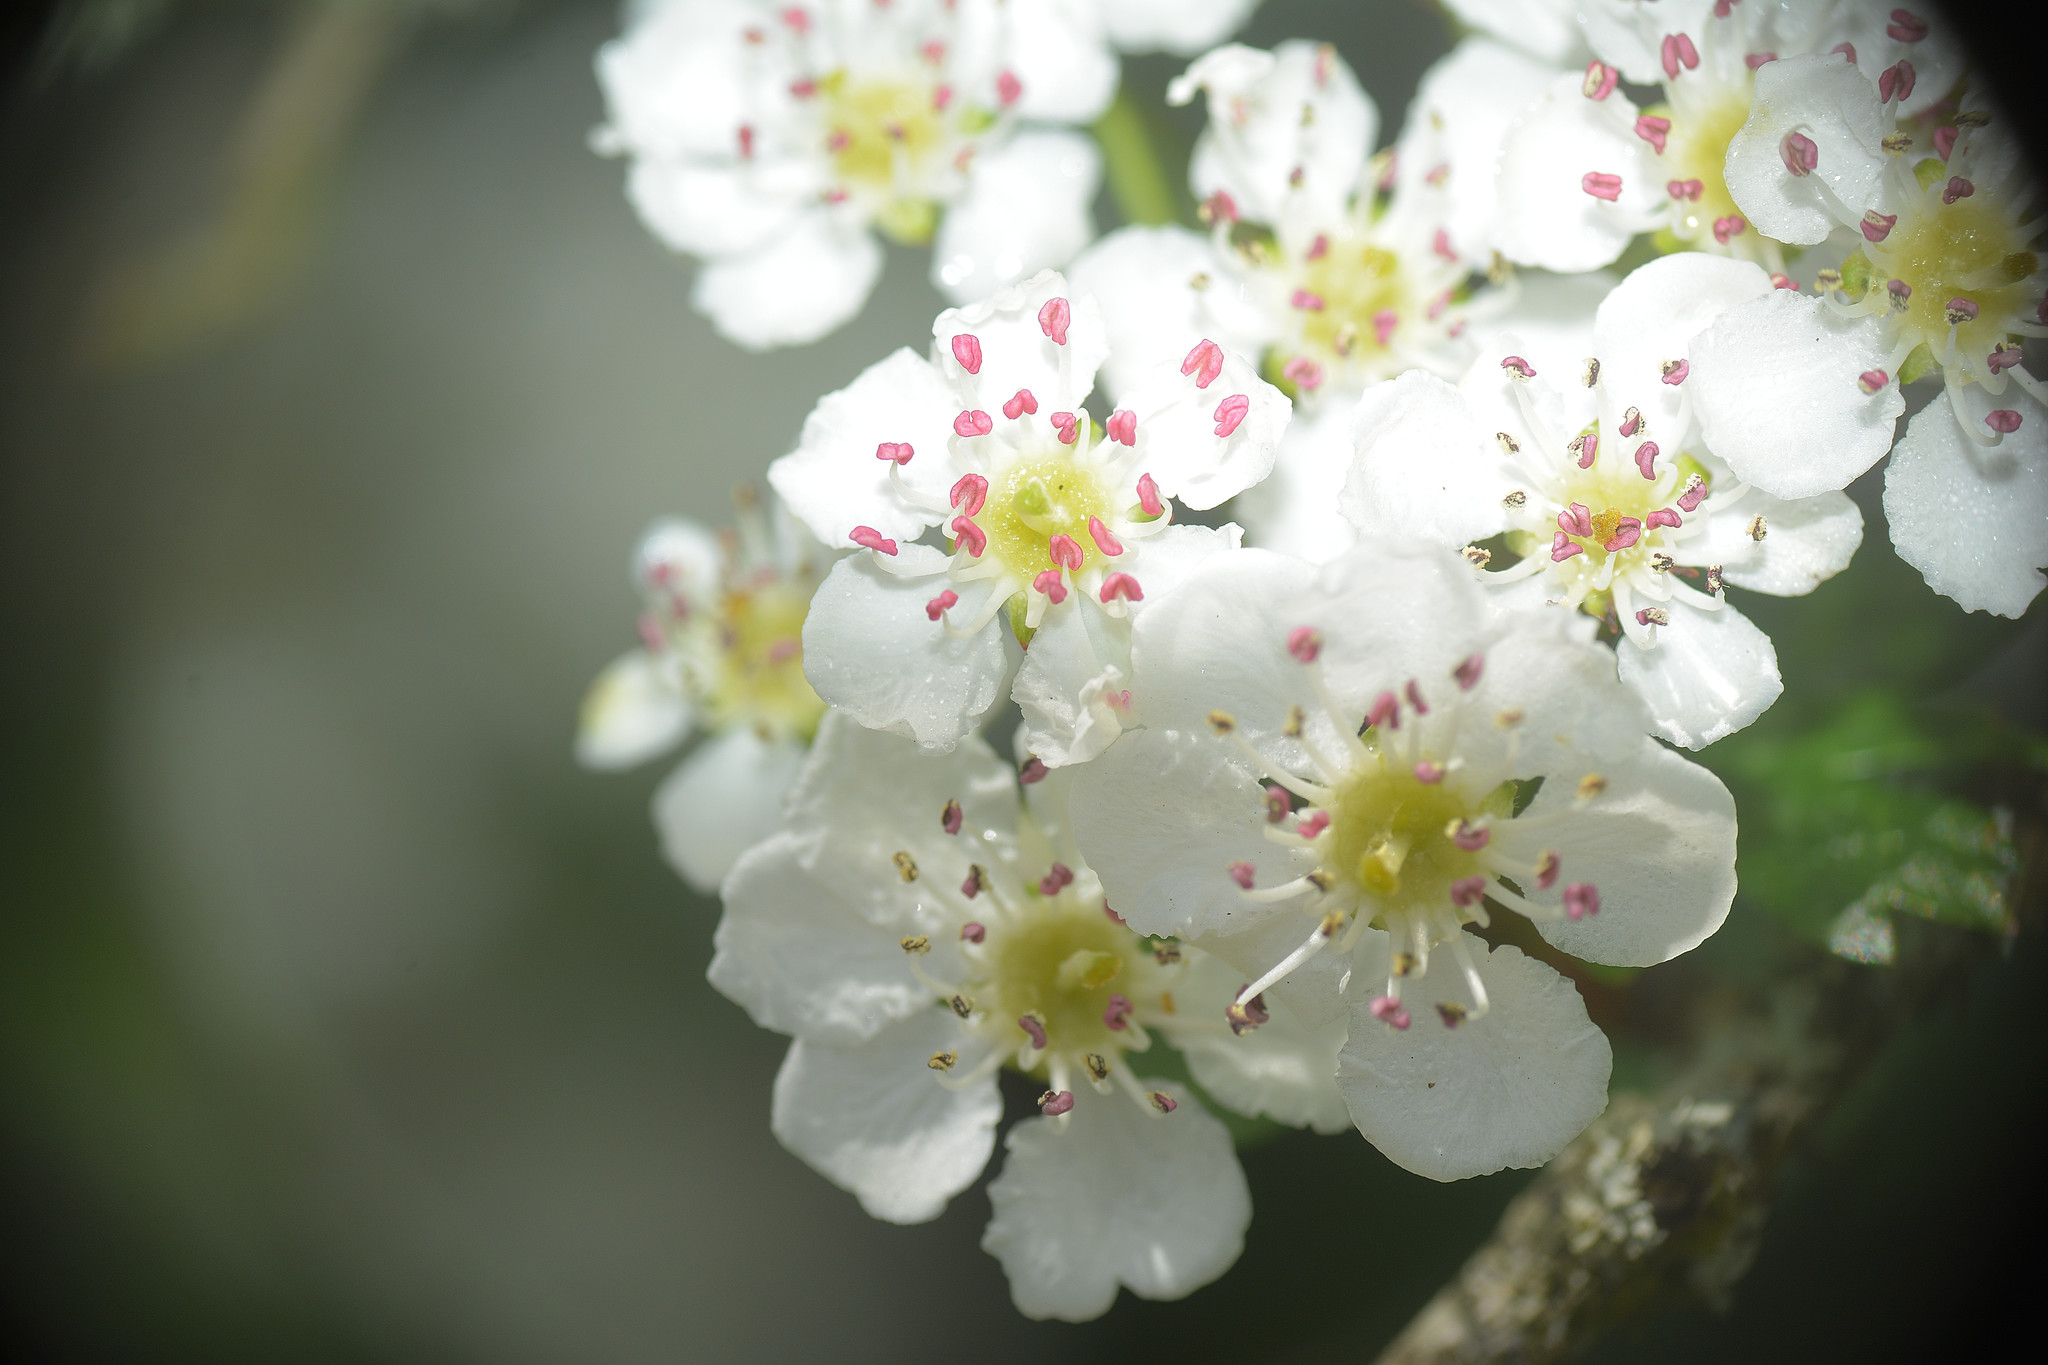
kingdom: Plantae
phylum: Tracheophyta
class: Magnoliopsida
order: Rosales
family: Rosaceae
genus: Crataegus
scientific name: Crataegus monogyna
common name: Hawthorn
